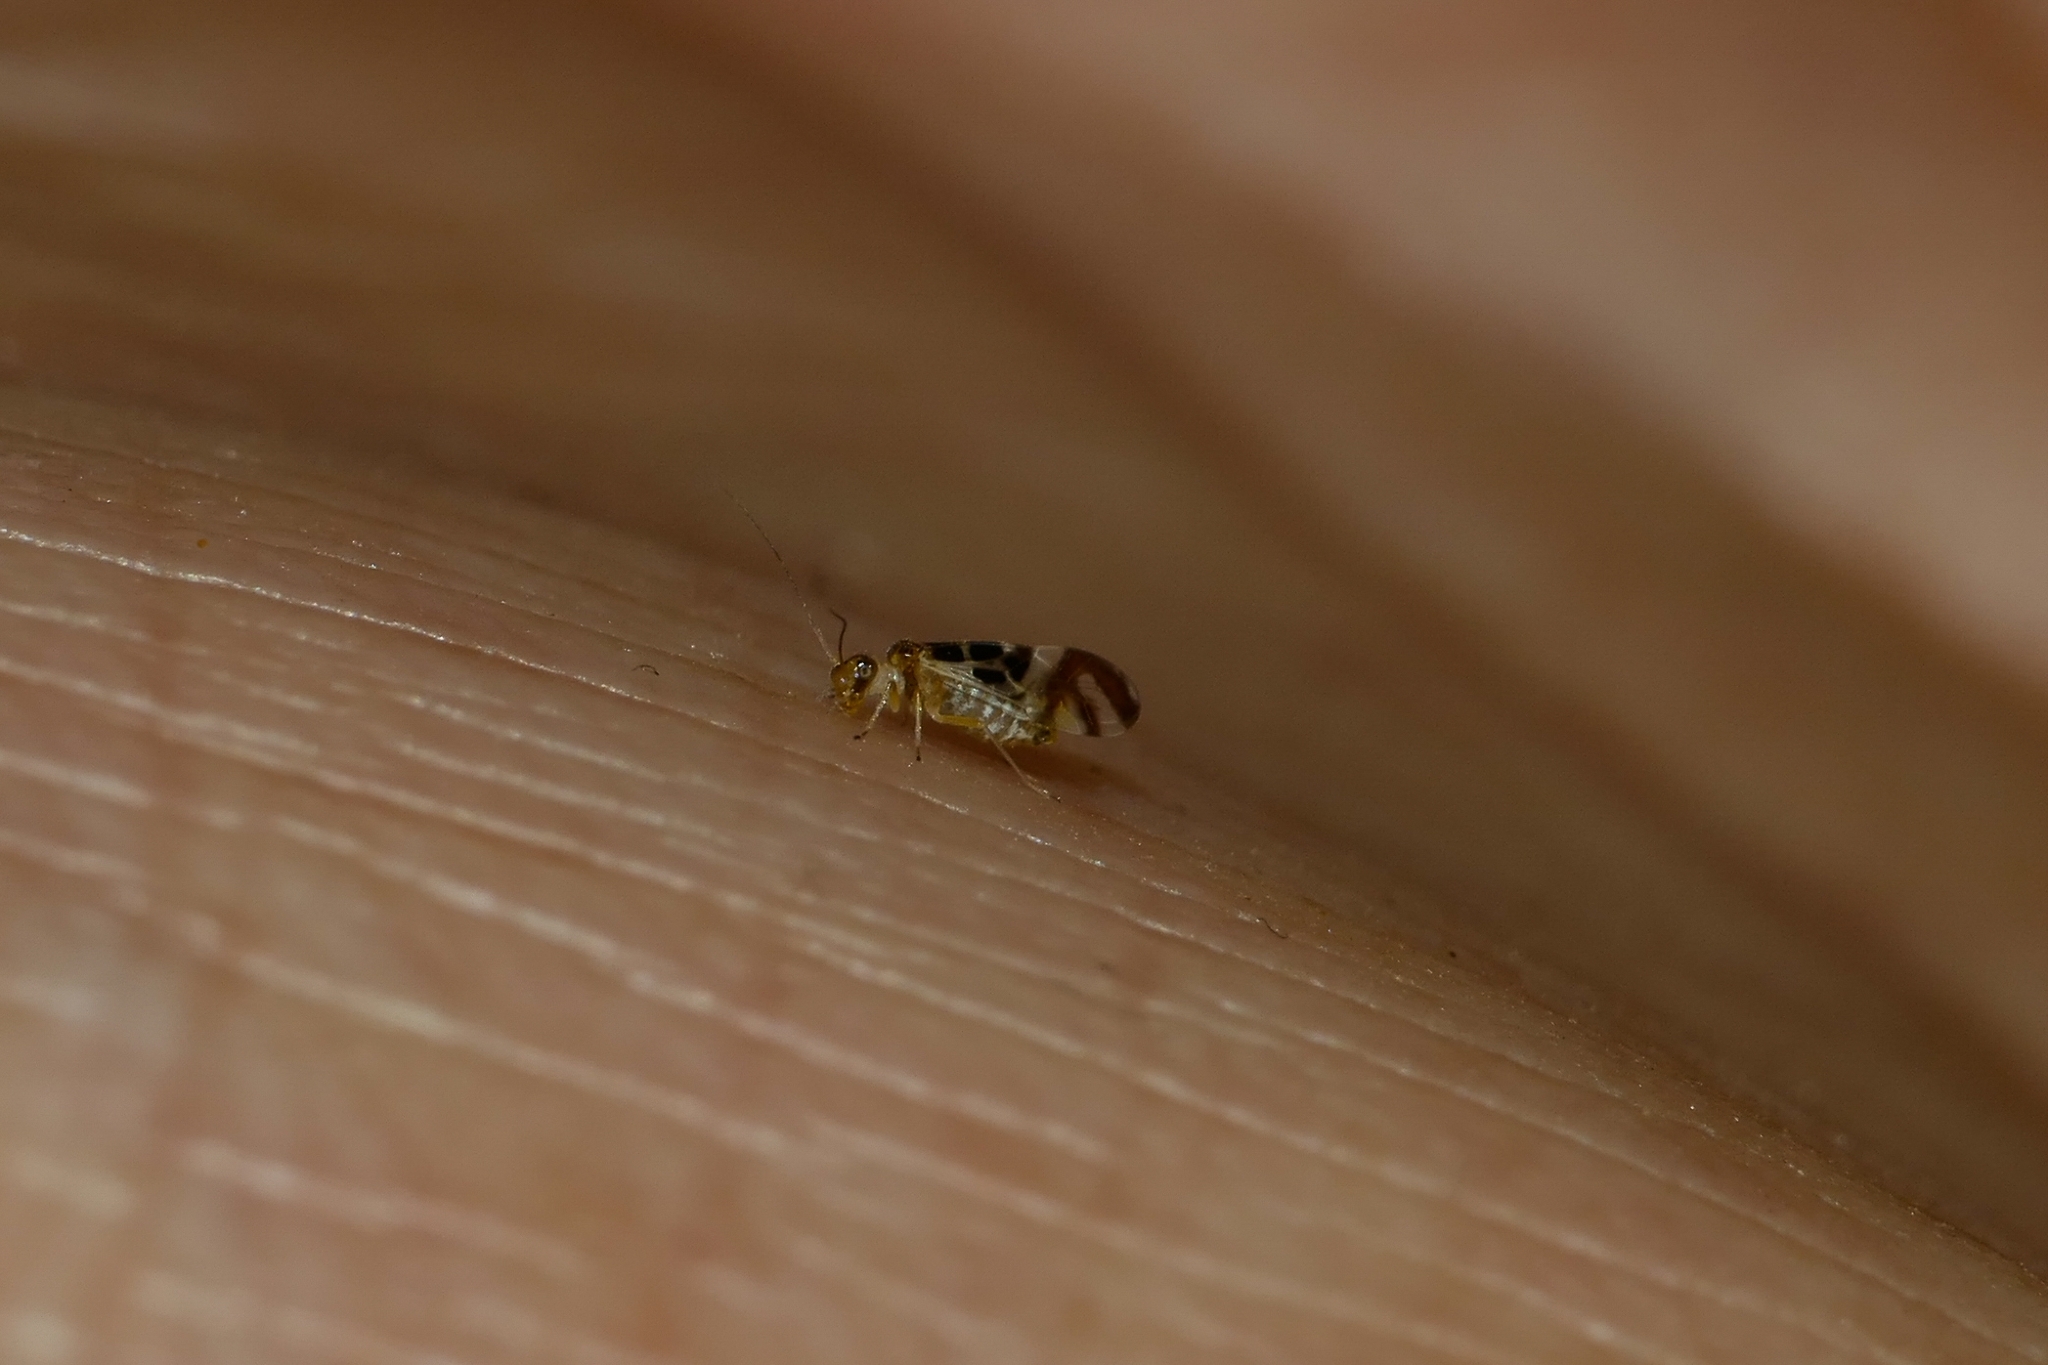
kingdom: Animalia
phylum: Arthropoda
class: Insecta
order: Psocodea
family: Stenopsocidae
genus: Graphopsocus
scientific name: Graphopsocus cruciatus
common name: Lizard bark louse
